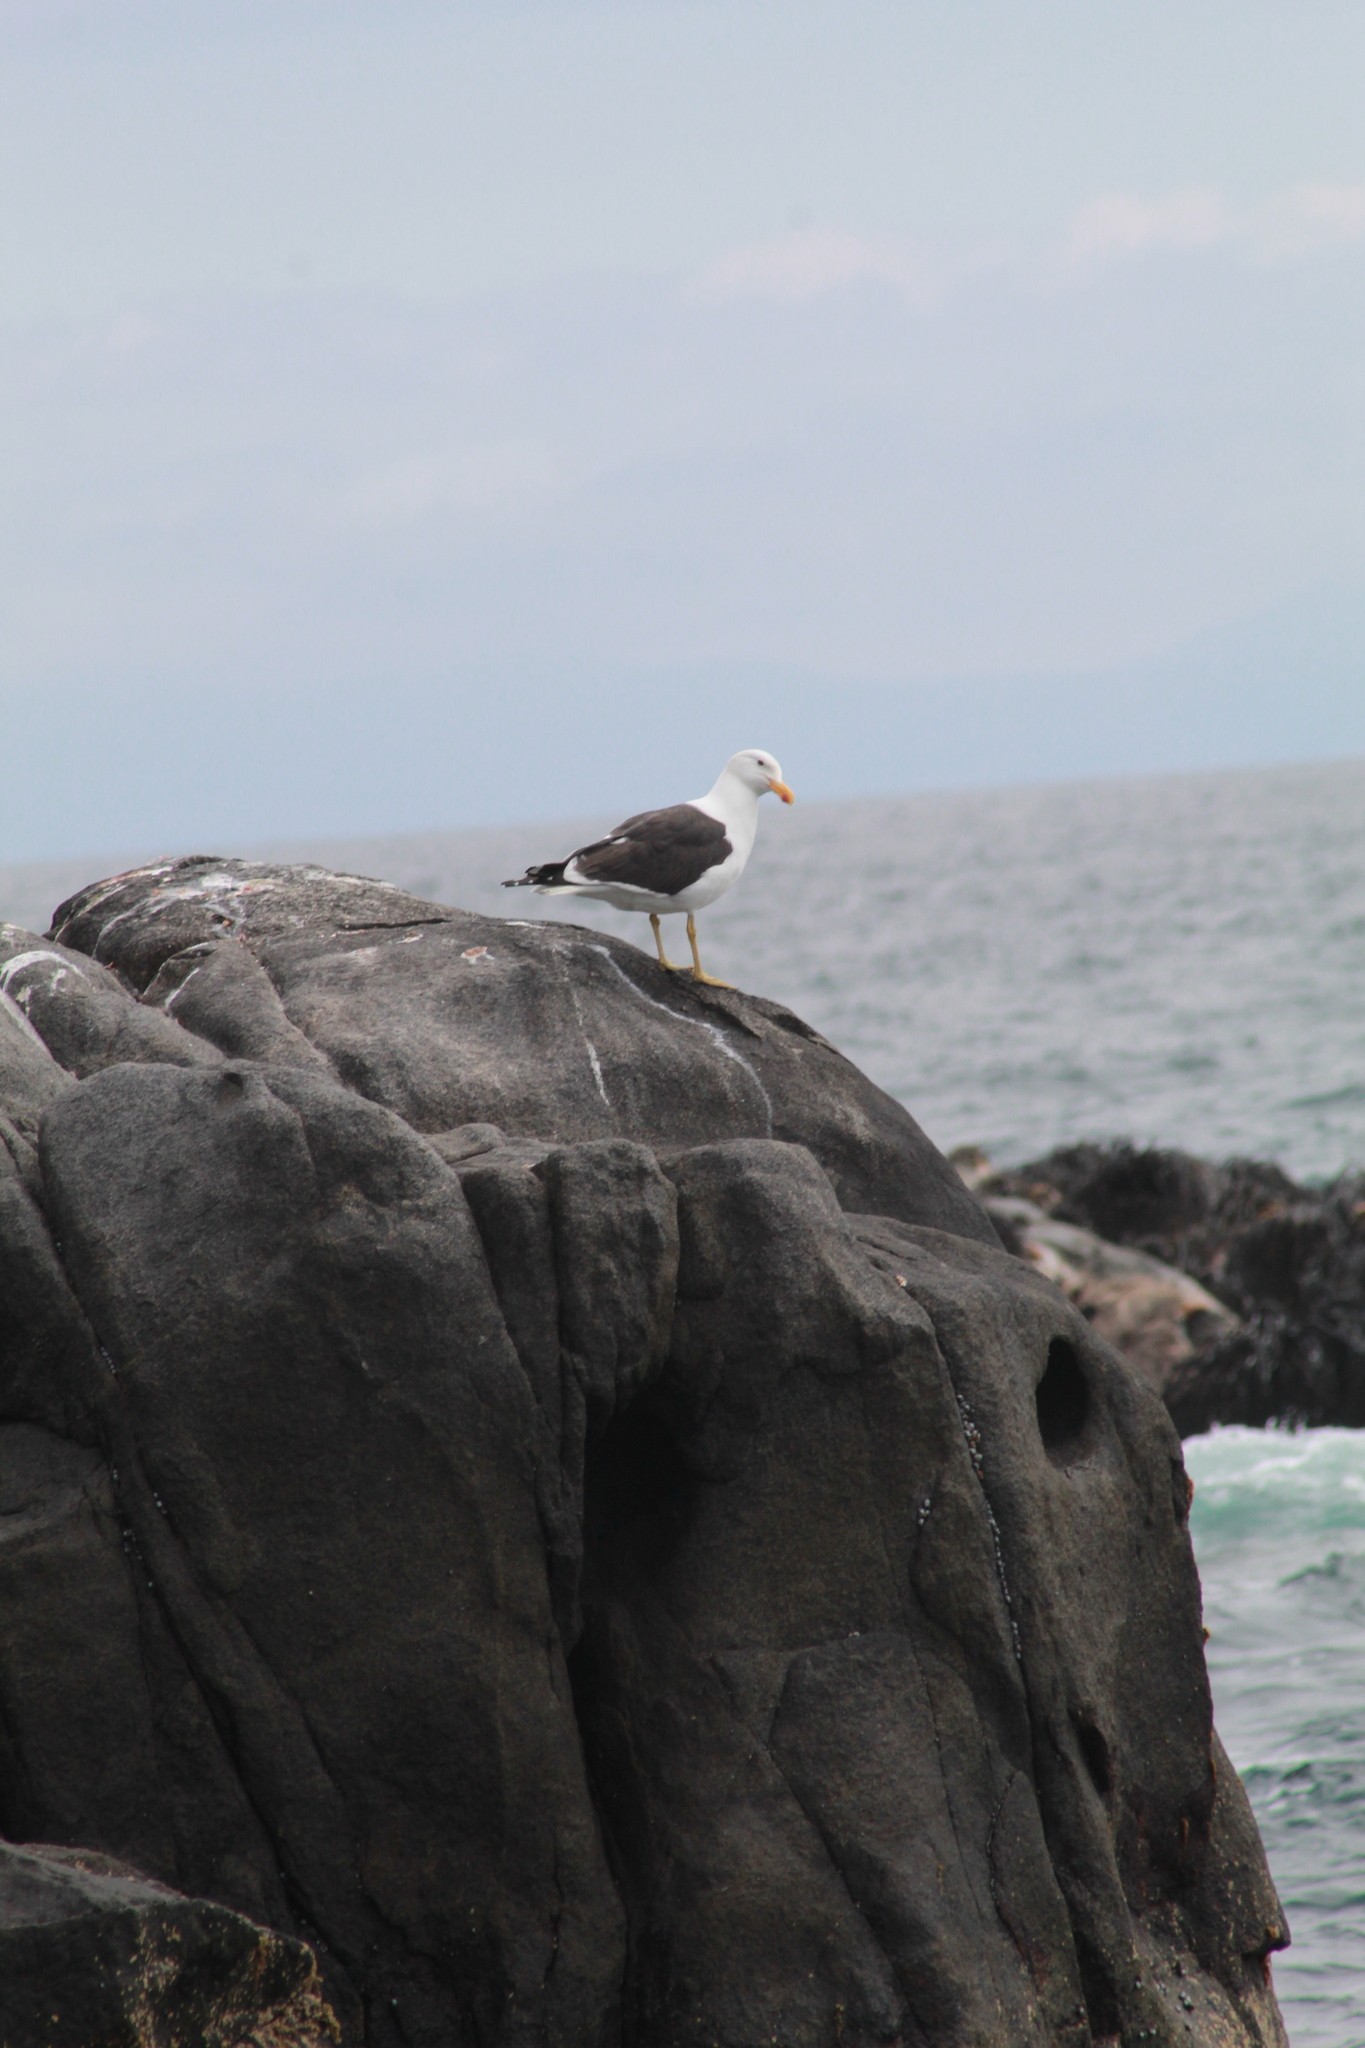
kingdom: Animalia
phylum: Chordata
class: Aves
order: Charadriiformes
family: Laridae
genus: Larus
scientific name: Larus dominicanus
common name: Kelp gull
